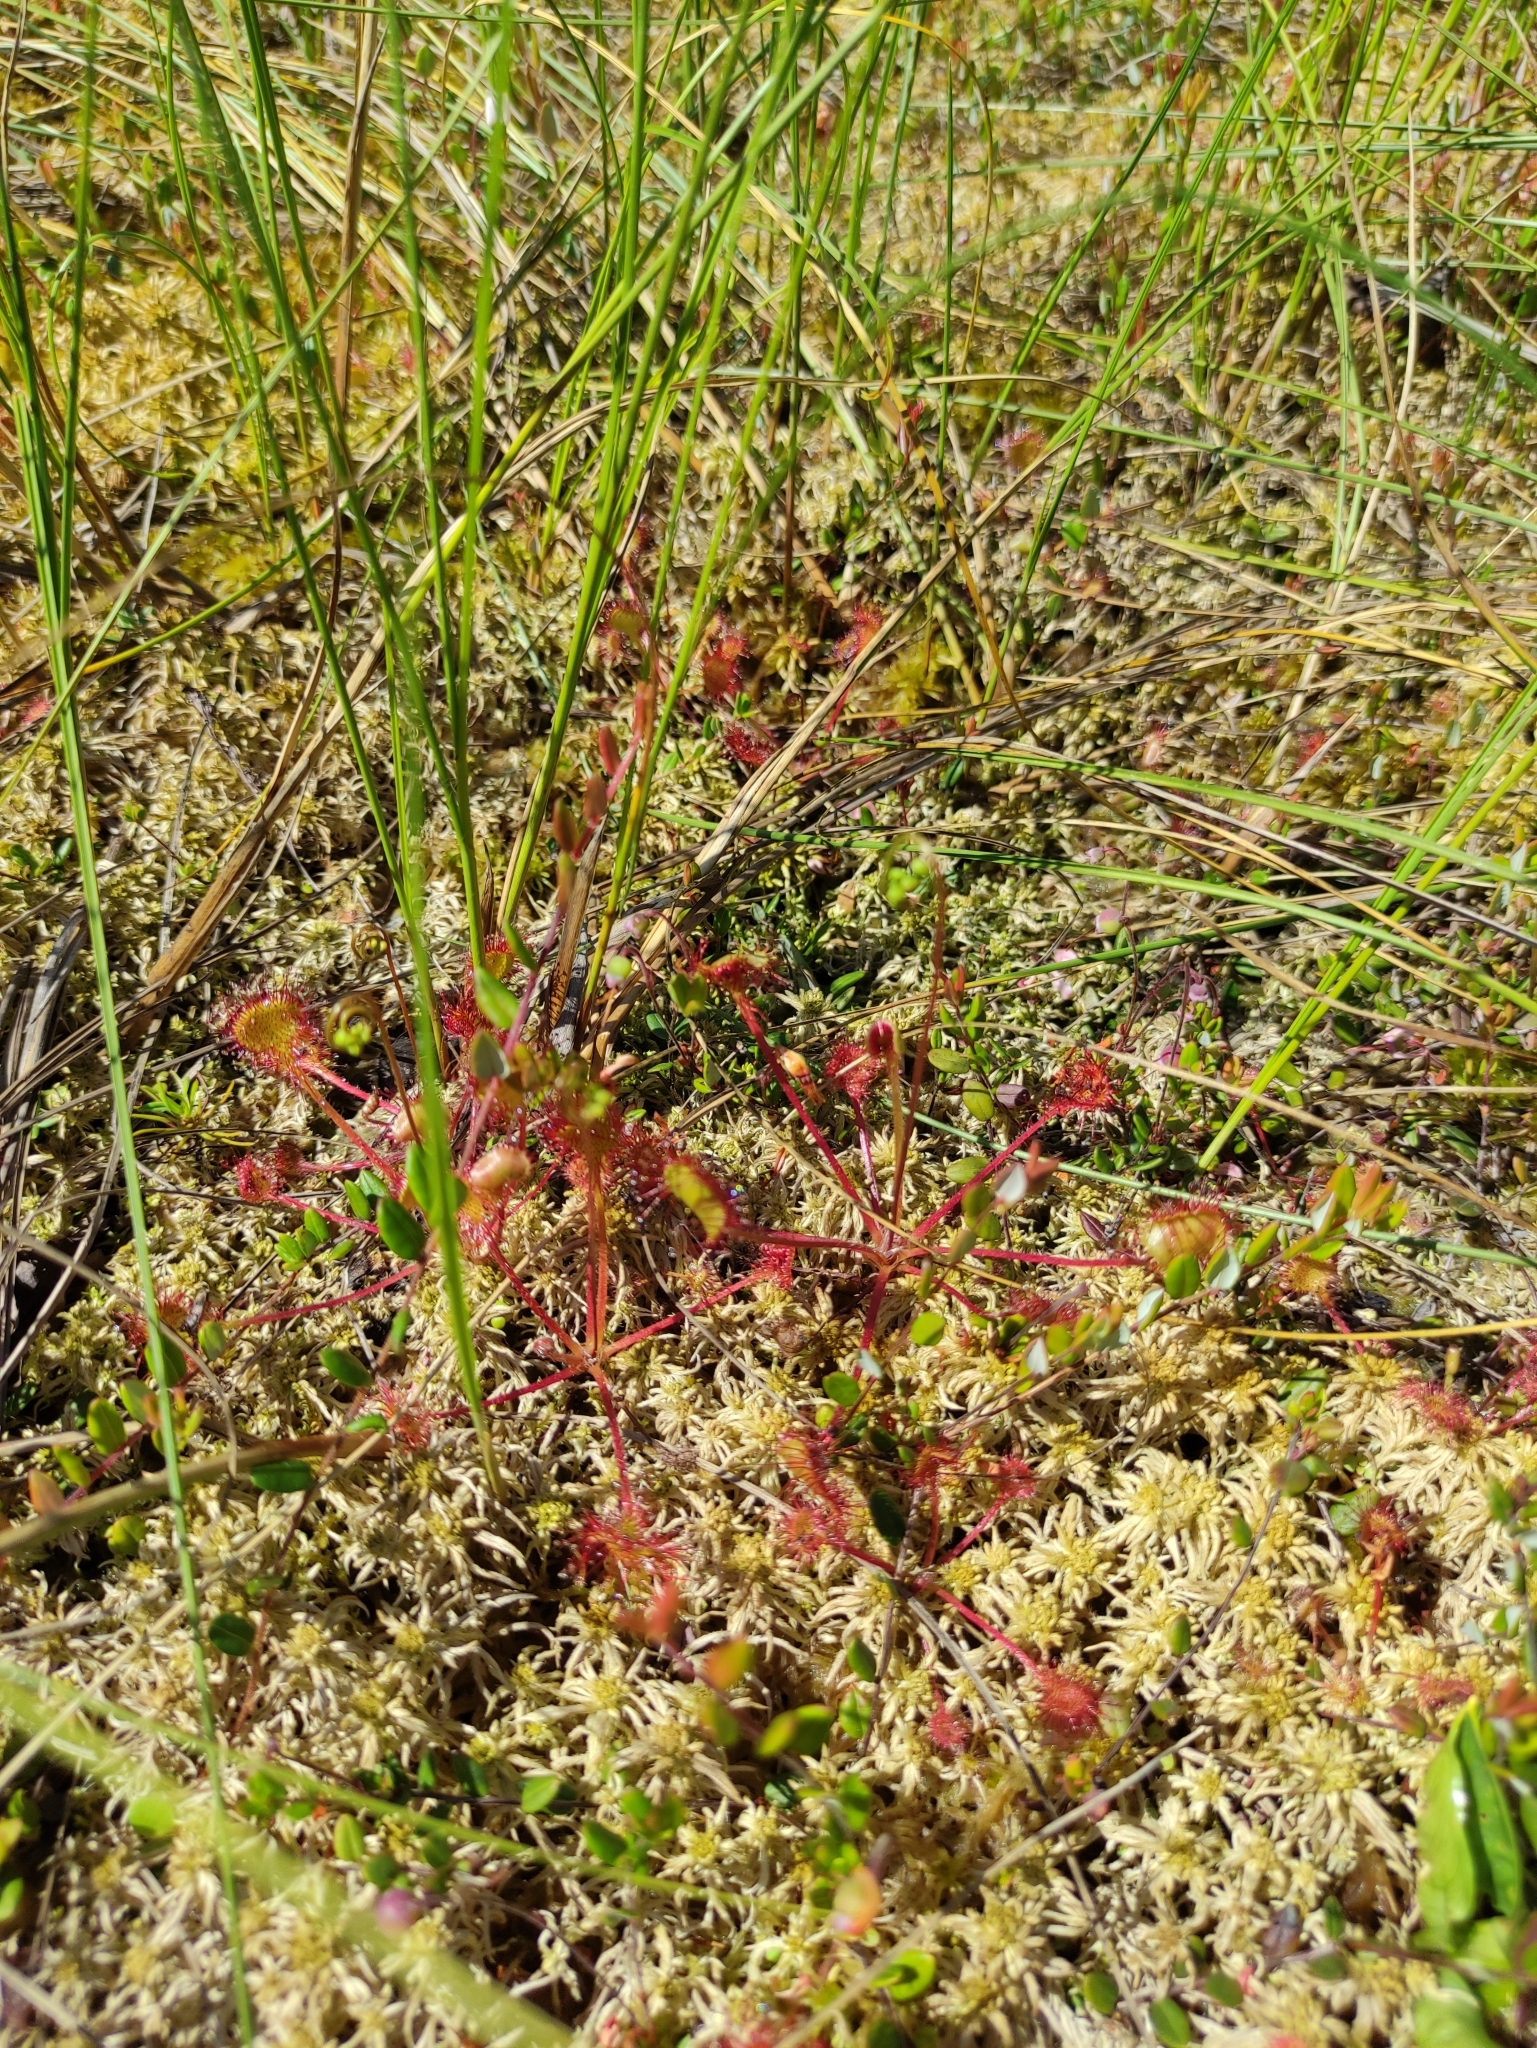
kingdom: Plantae
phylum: Tracheophyta
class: Magnoliopsida
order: Caryophyllales
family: Droseraceae
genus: Drosera
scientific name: Drosera rotundifolia
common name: Round-leaved sundew
